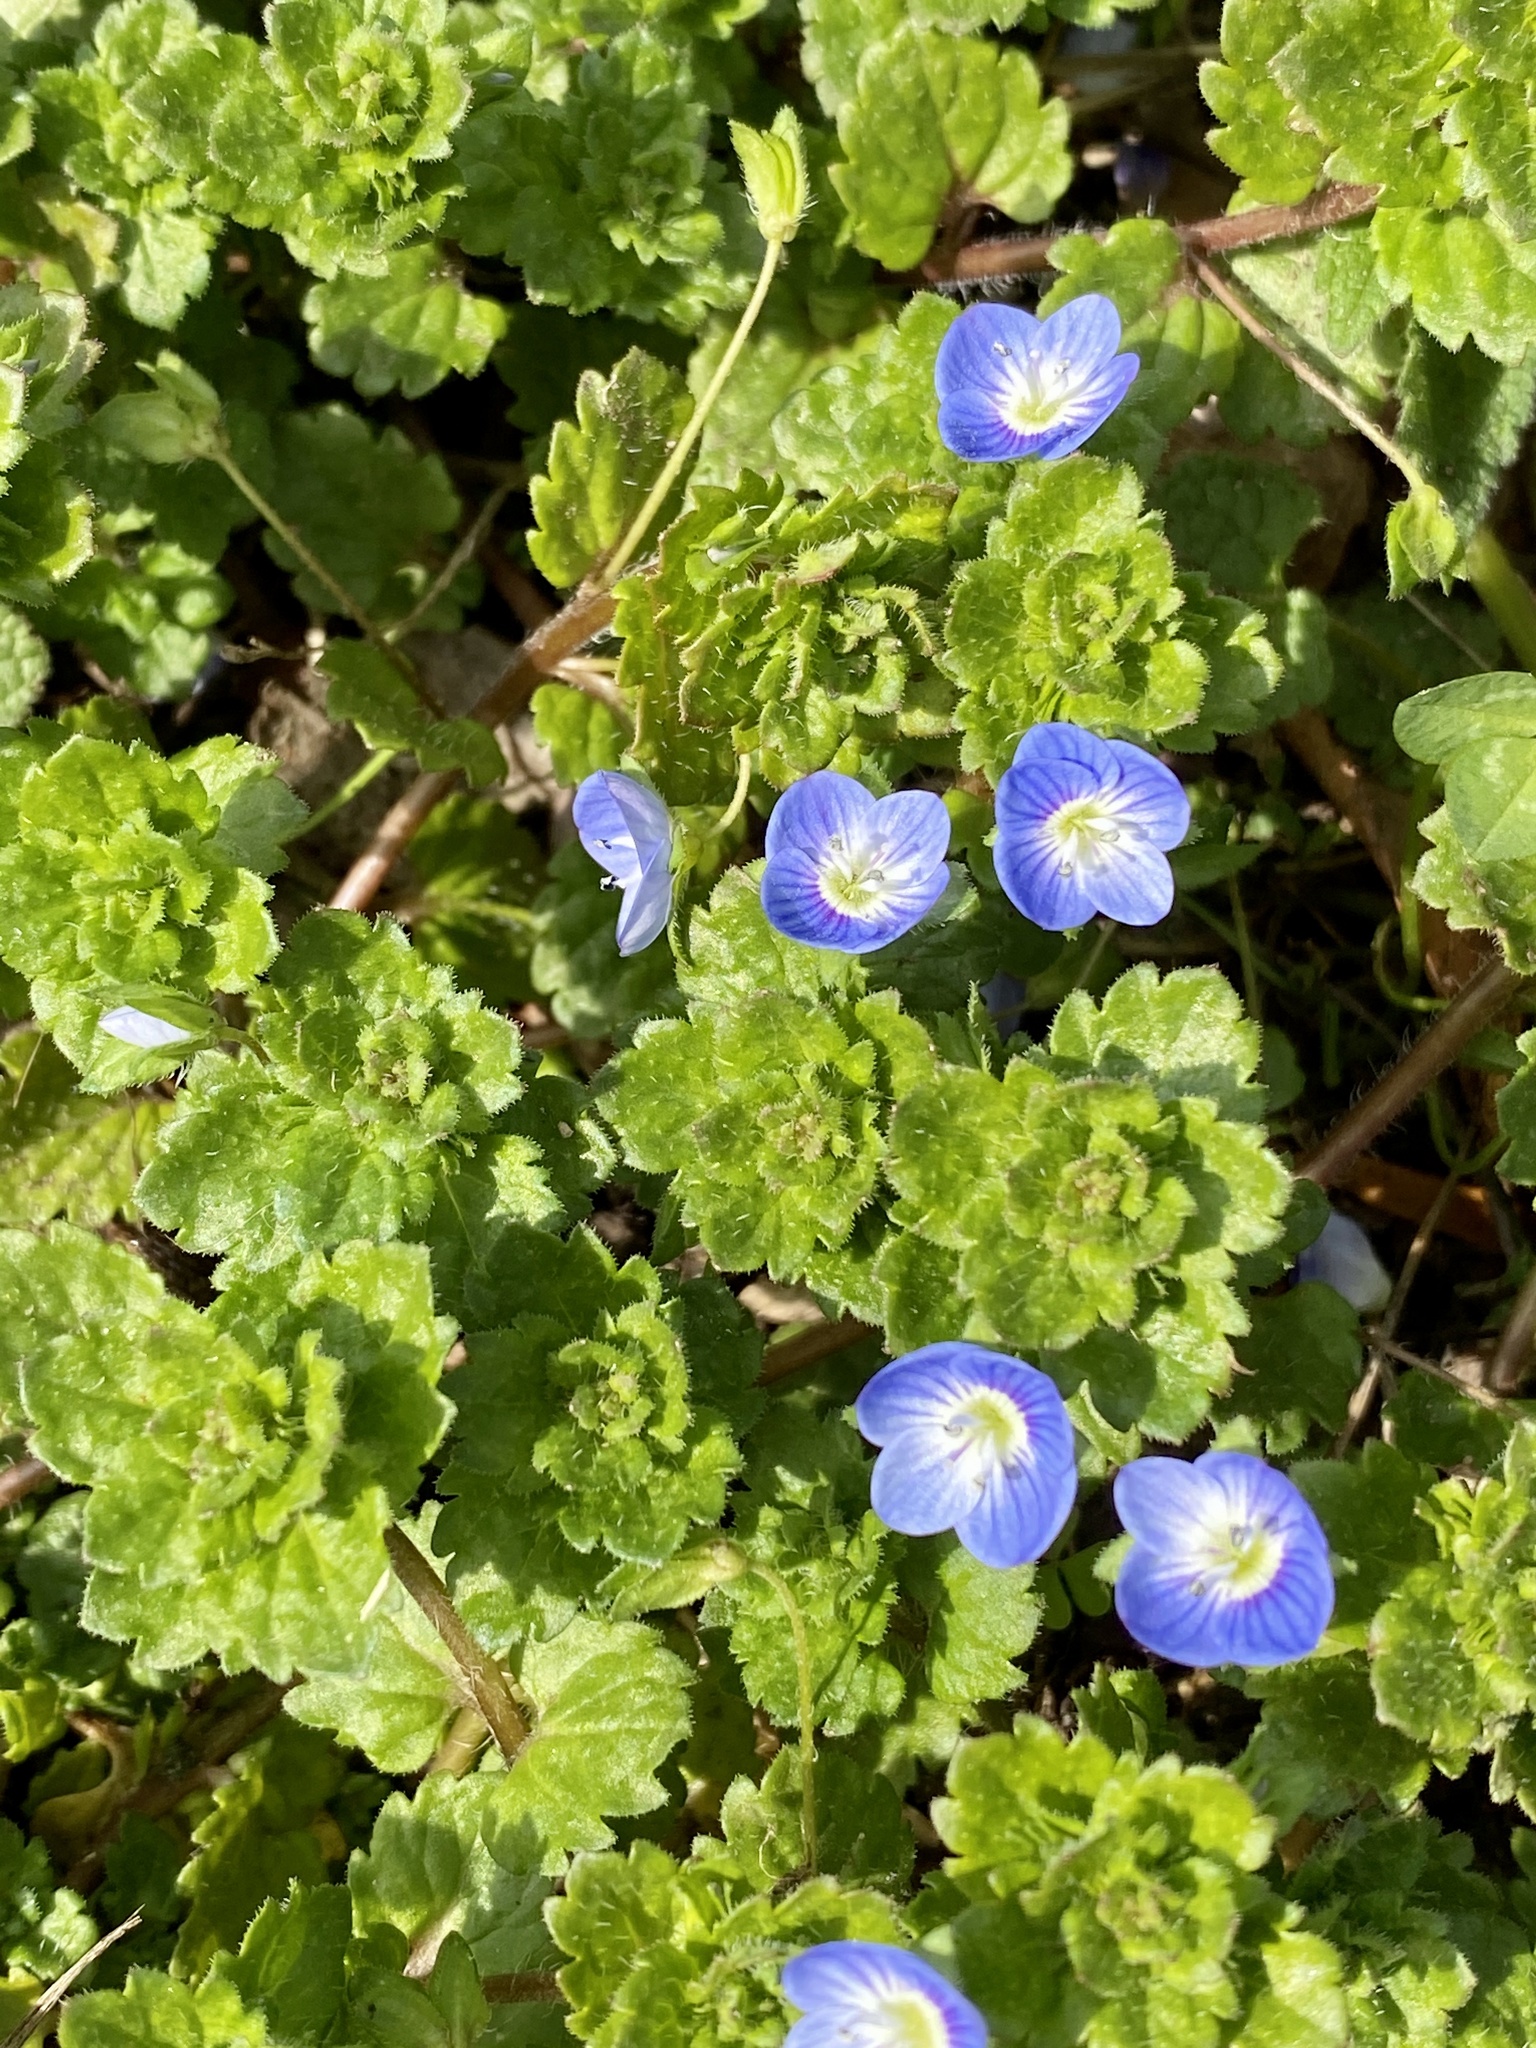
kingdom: Plantae
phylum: Tracheophyta
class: Magnoliopsida
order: Lamiales
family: Plantaginaceae
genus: Veronica
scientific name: Veronica persica
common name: Common field-speedwell
